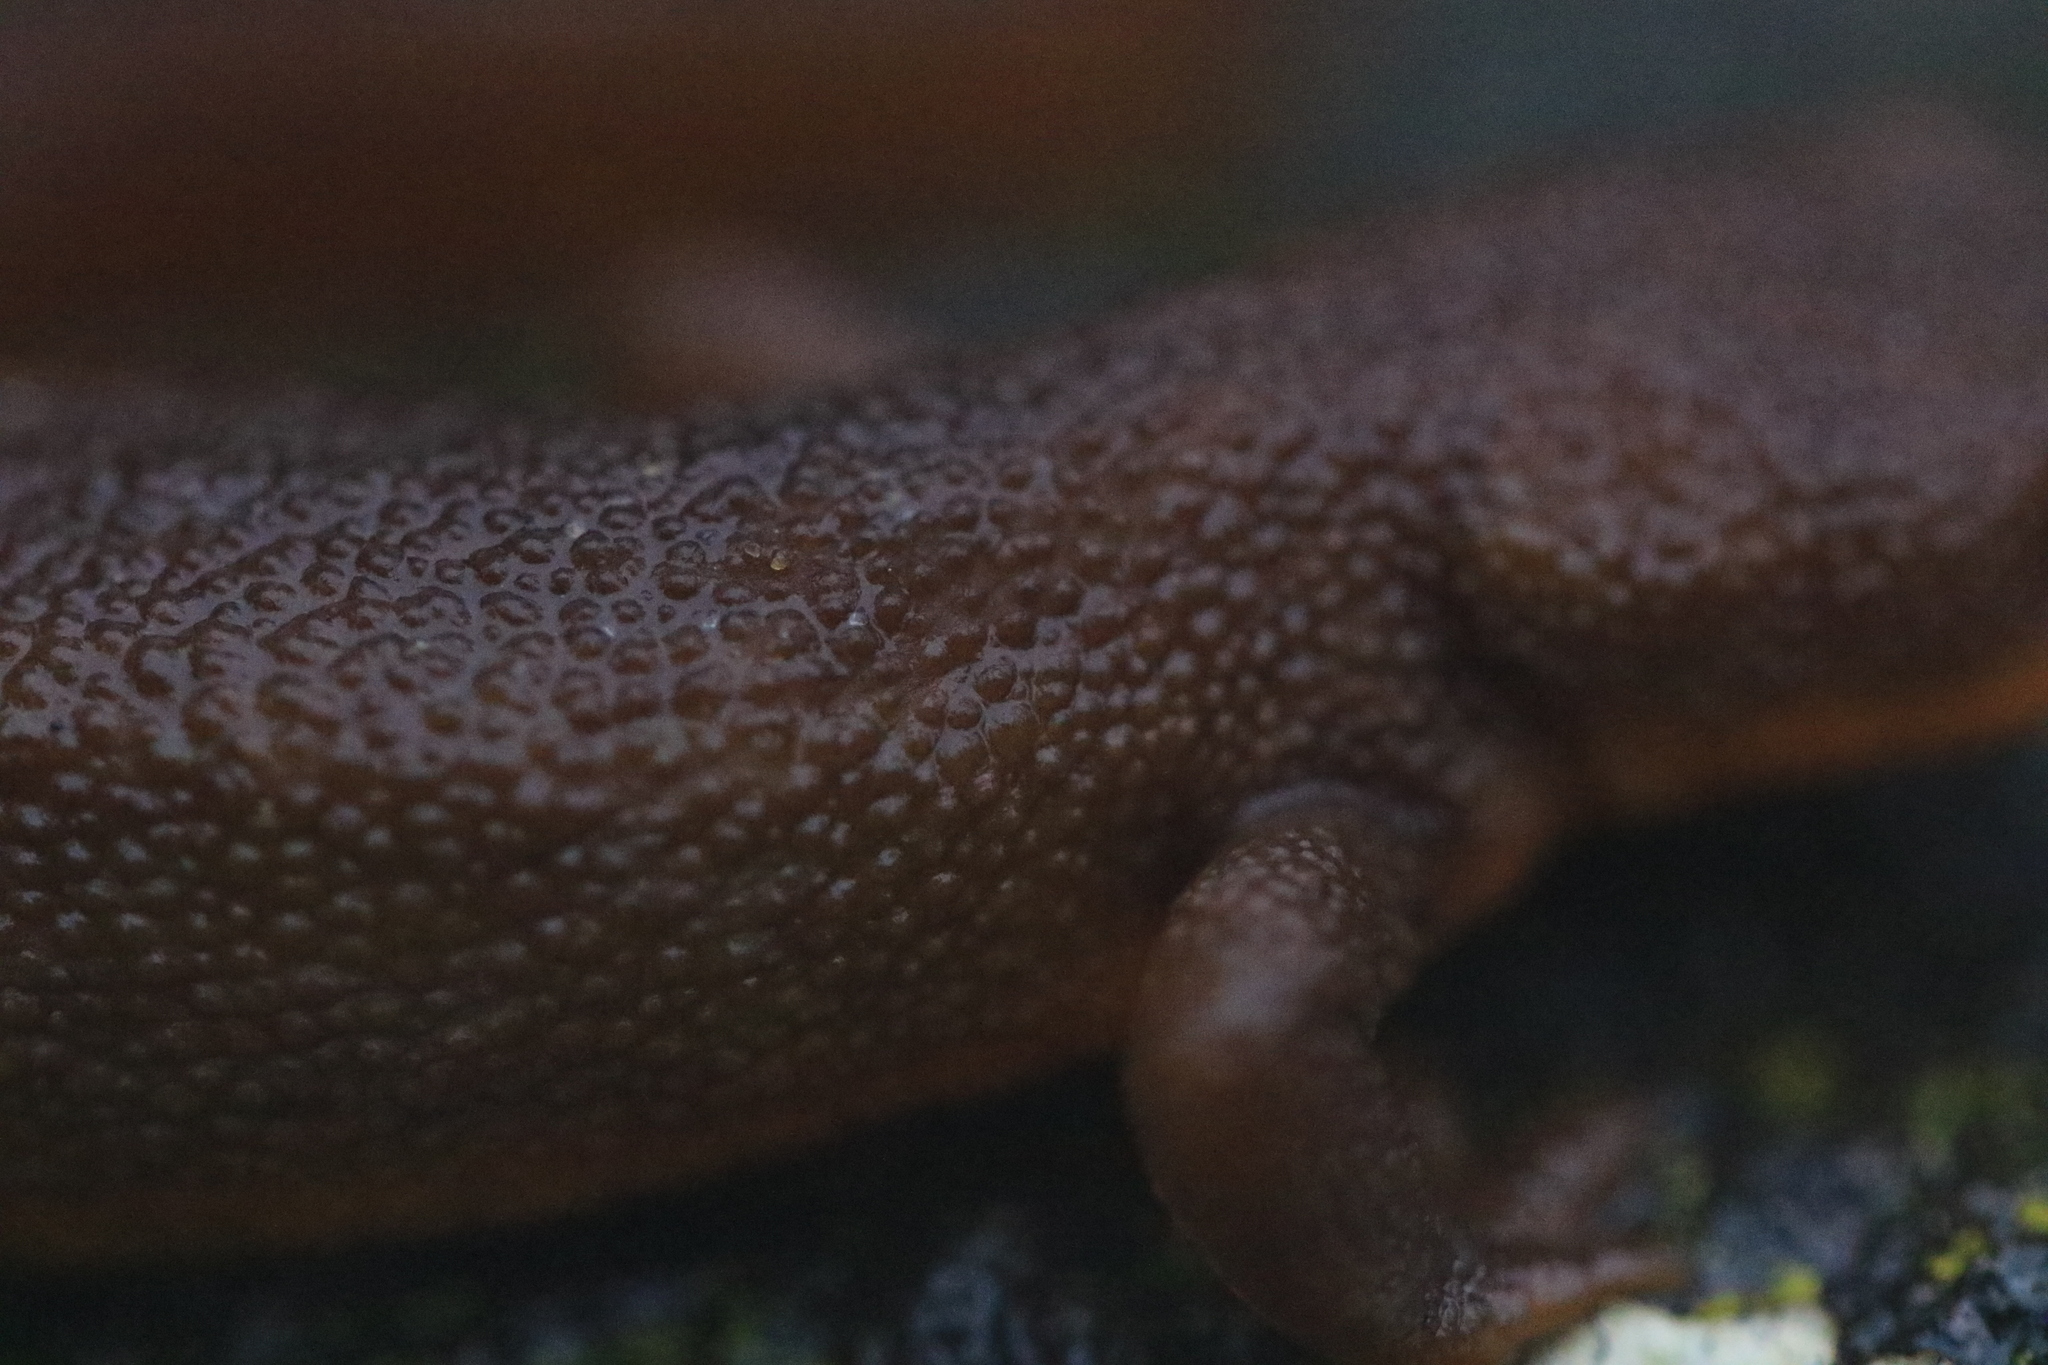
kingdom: Animalia
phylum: Chordata
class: Amphibia
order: Caudata
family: Salamandridae
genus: Taricha
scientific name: Taricha granulosa
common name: Roughskin newt
